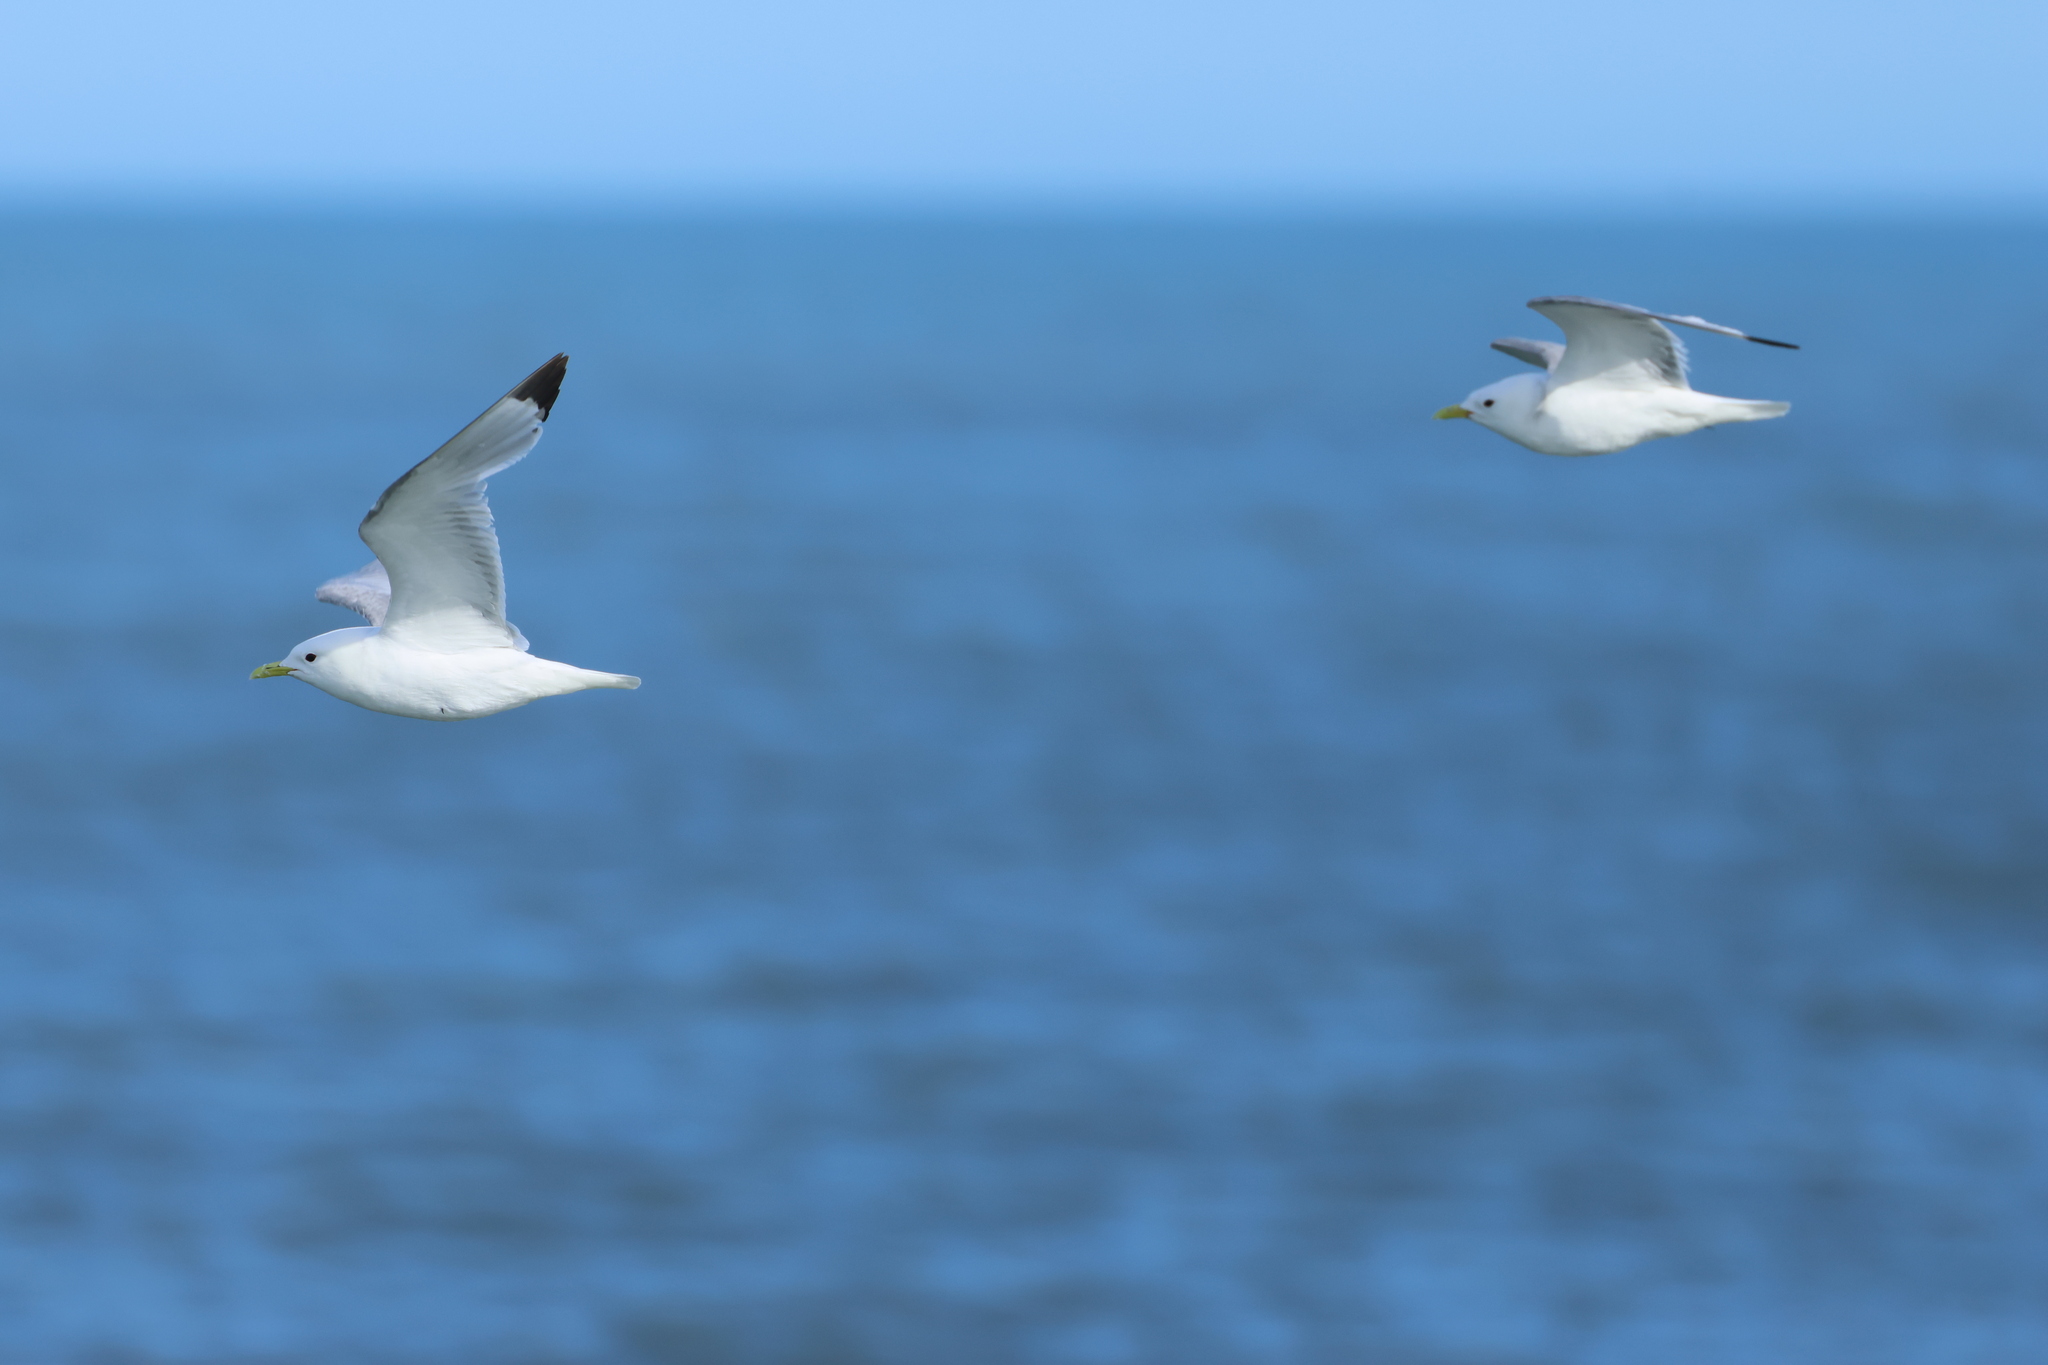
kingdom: Animalia
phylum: Chordata
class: Aves
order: Charadriiformes
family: Laridae
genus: Rissa
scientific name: Rissa tridactyla
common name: Black-legged kittiwake
